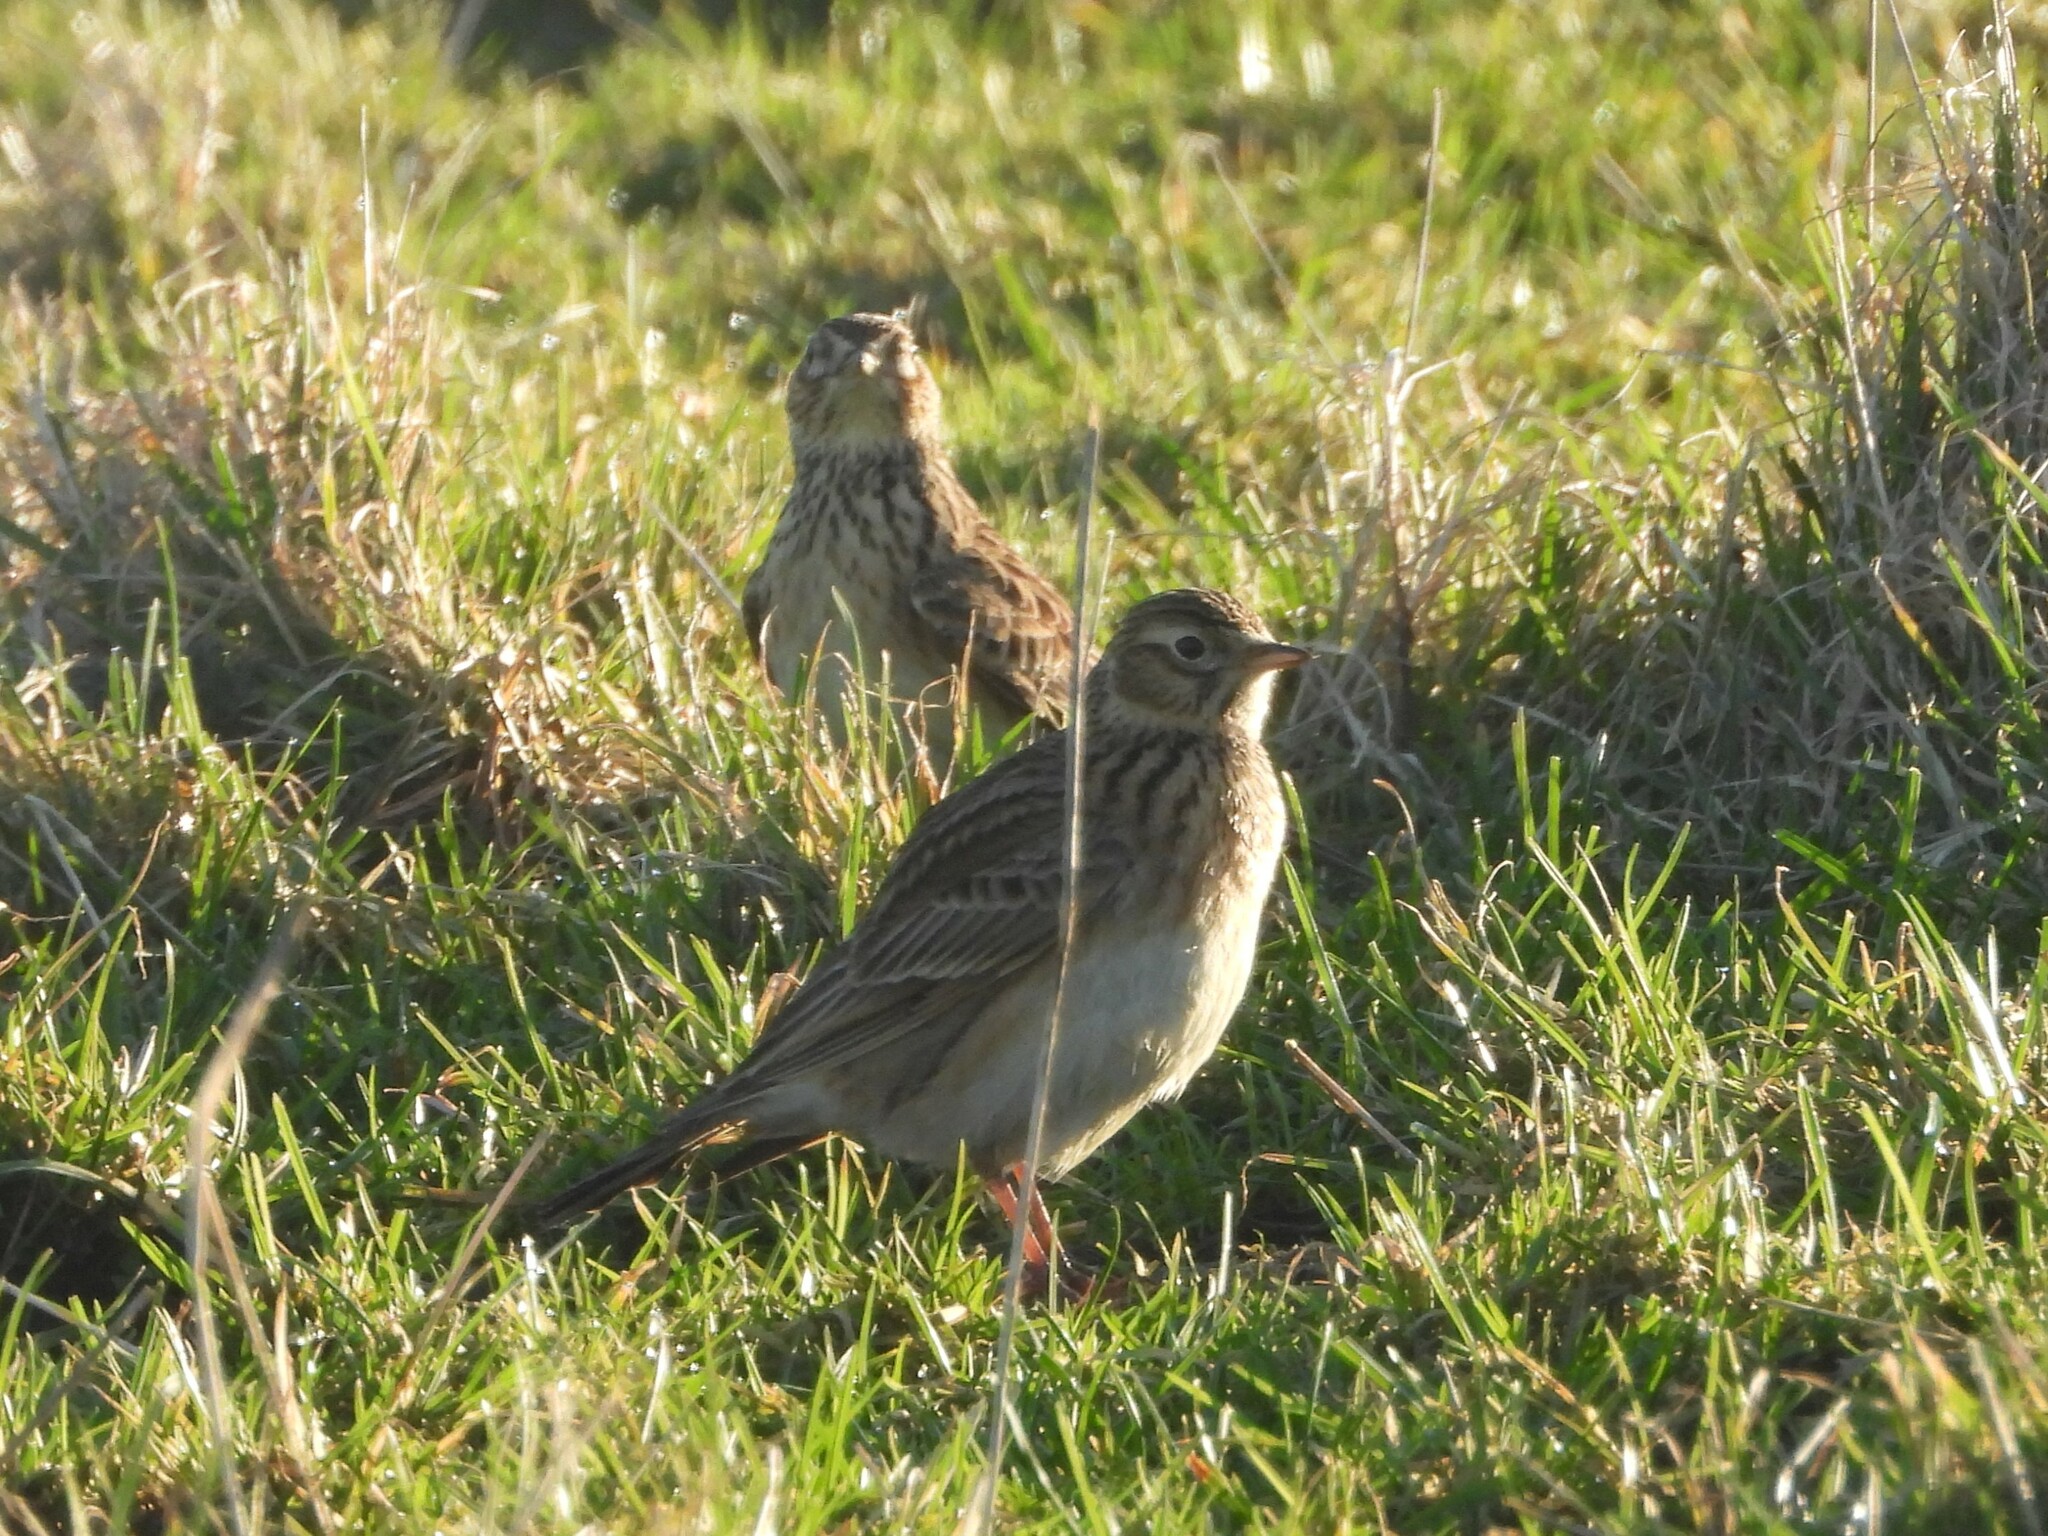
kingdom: Animalia
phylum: Chordata
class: Aves
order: Passeriformes
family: Alaudidae
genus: Alauda
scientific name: Alauda arvensis
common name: Eurasian skylark
